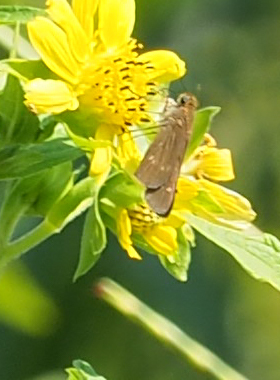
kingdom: Animalia
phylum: Arthropoda
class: Insecta
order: Lepidoptera
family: Hesperiidae
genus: Panoquina
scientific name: Panoquina ocola
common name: Ocola skipper
